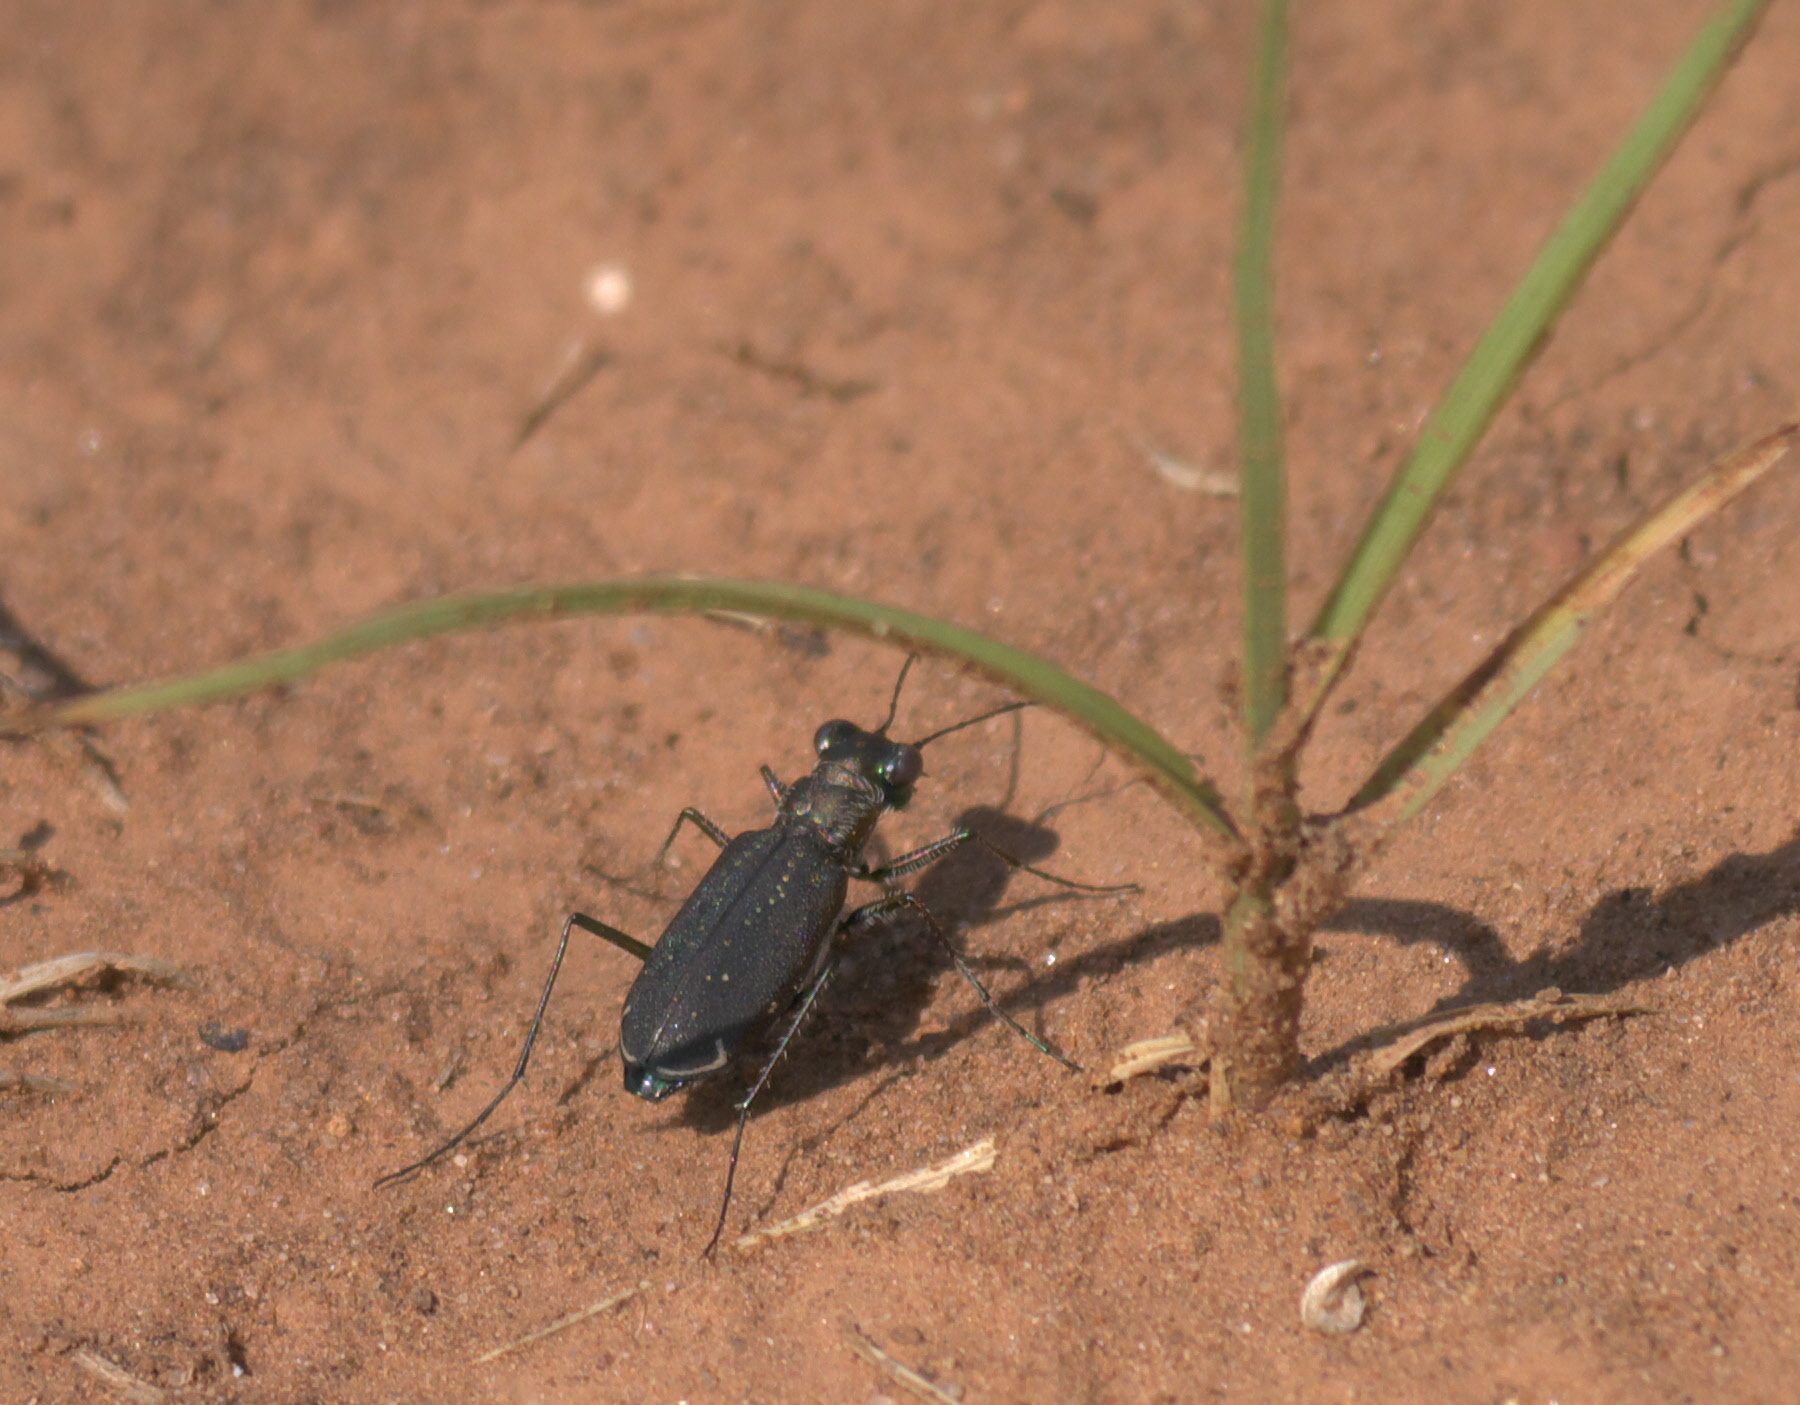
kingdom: Animalia
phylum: Arthropoda
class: Insecta
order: Coleoptera
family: Carabidae
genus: Cicindela
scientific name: Cicindela punctulata
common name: Punctured tiger beetle
